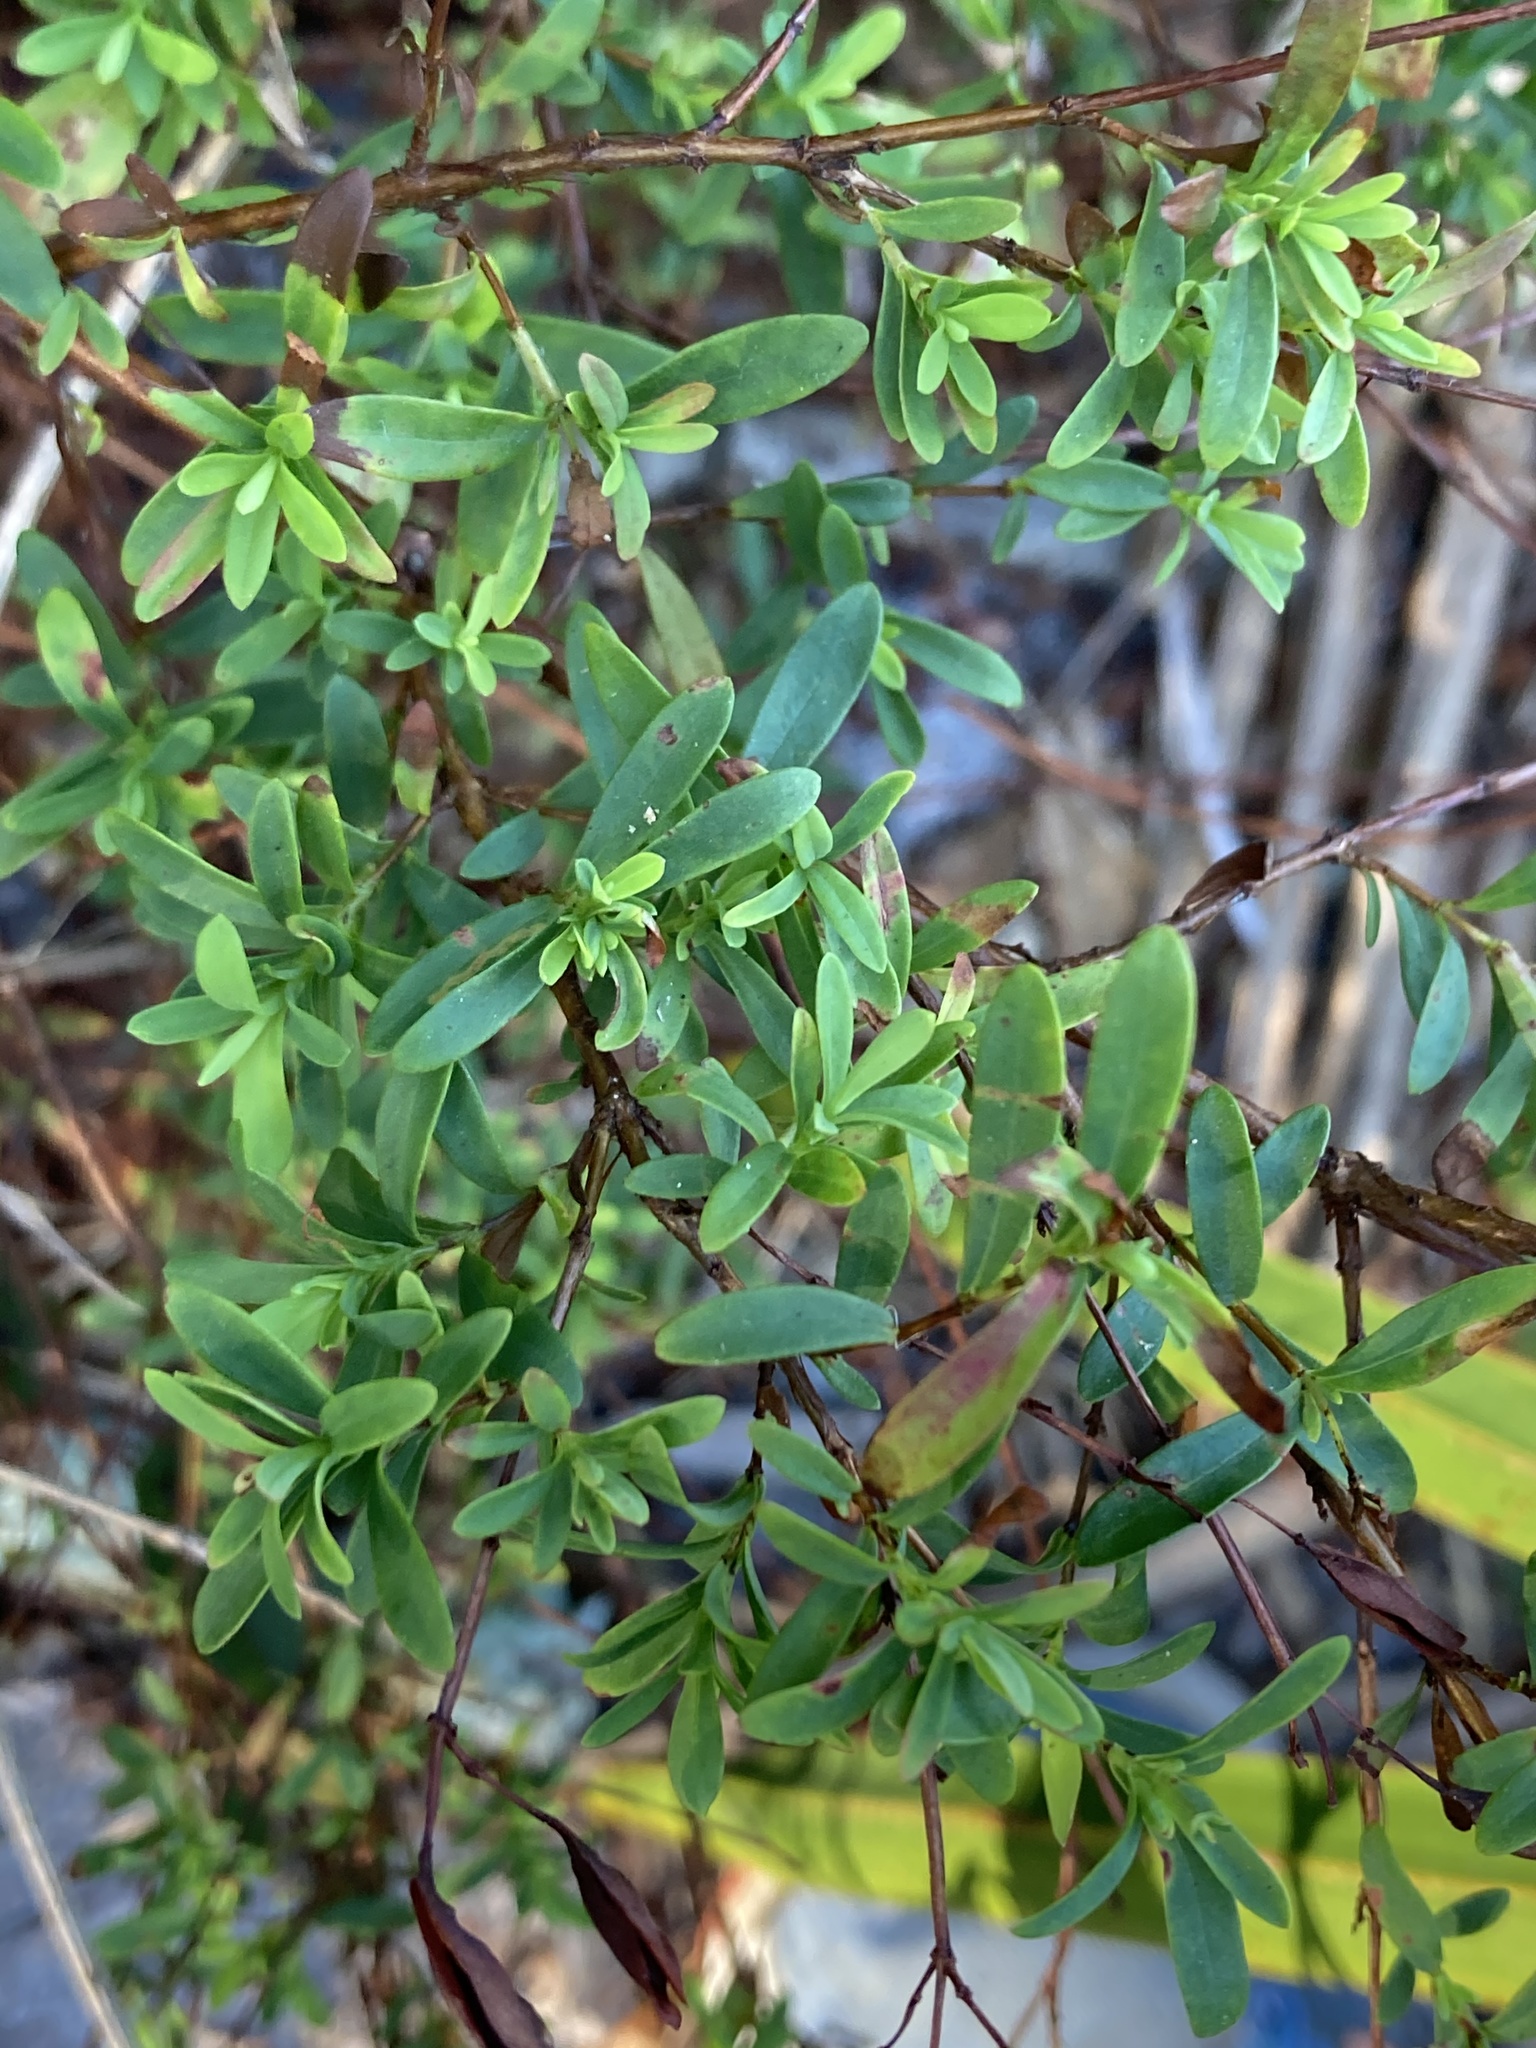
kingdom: Plantae
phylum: Tracheophyta
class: Magnoliopsida
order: Malpighiales
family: Hypericaceae
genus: Hypericum
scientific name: Hypericum hypericoides
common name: St. andrew's cross
